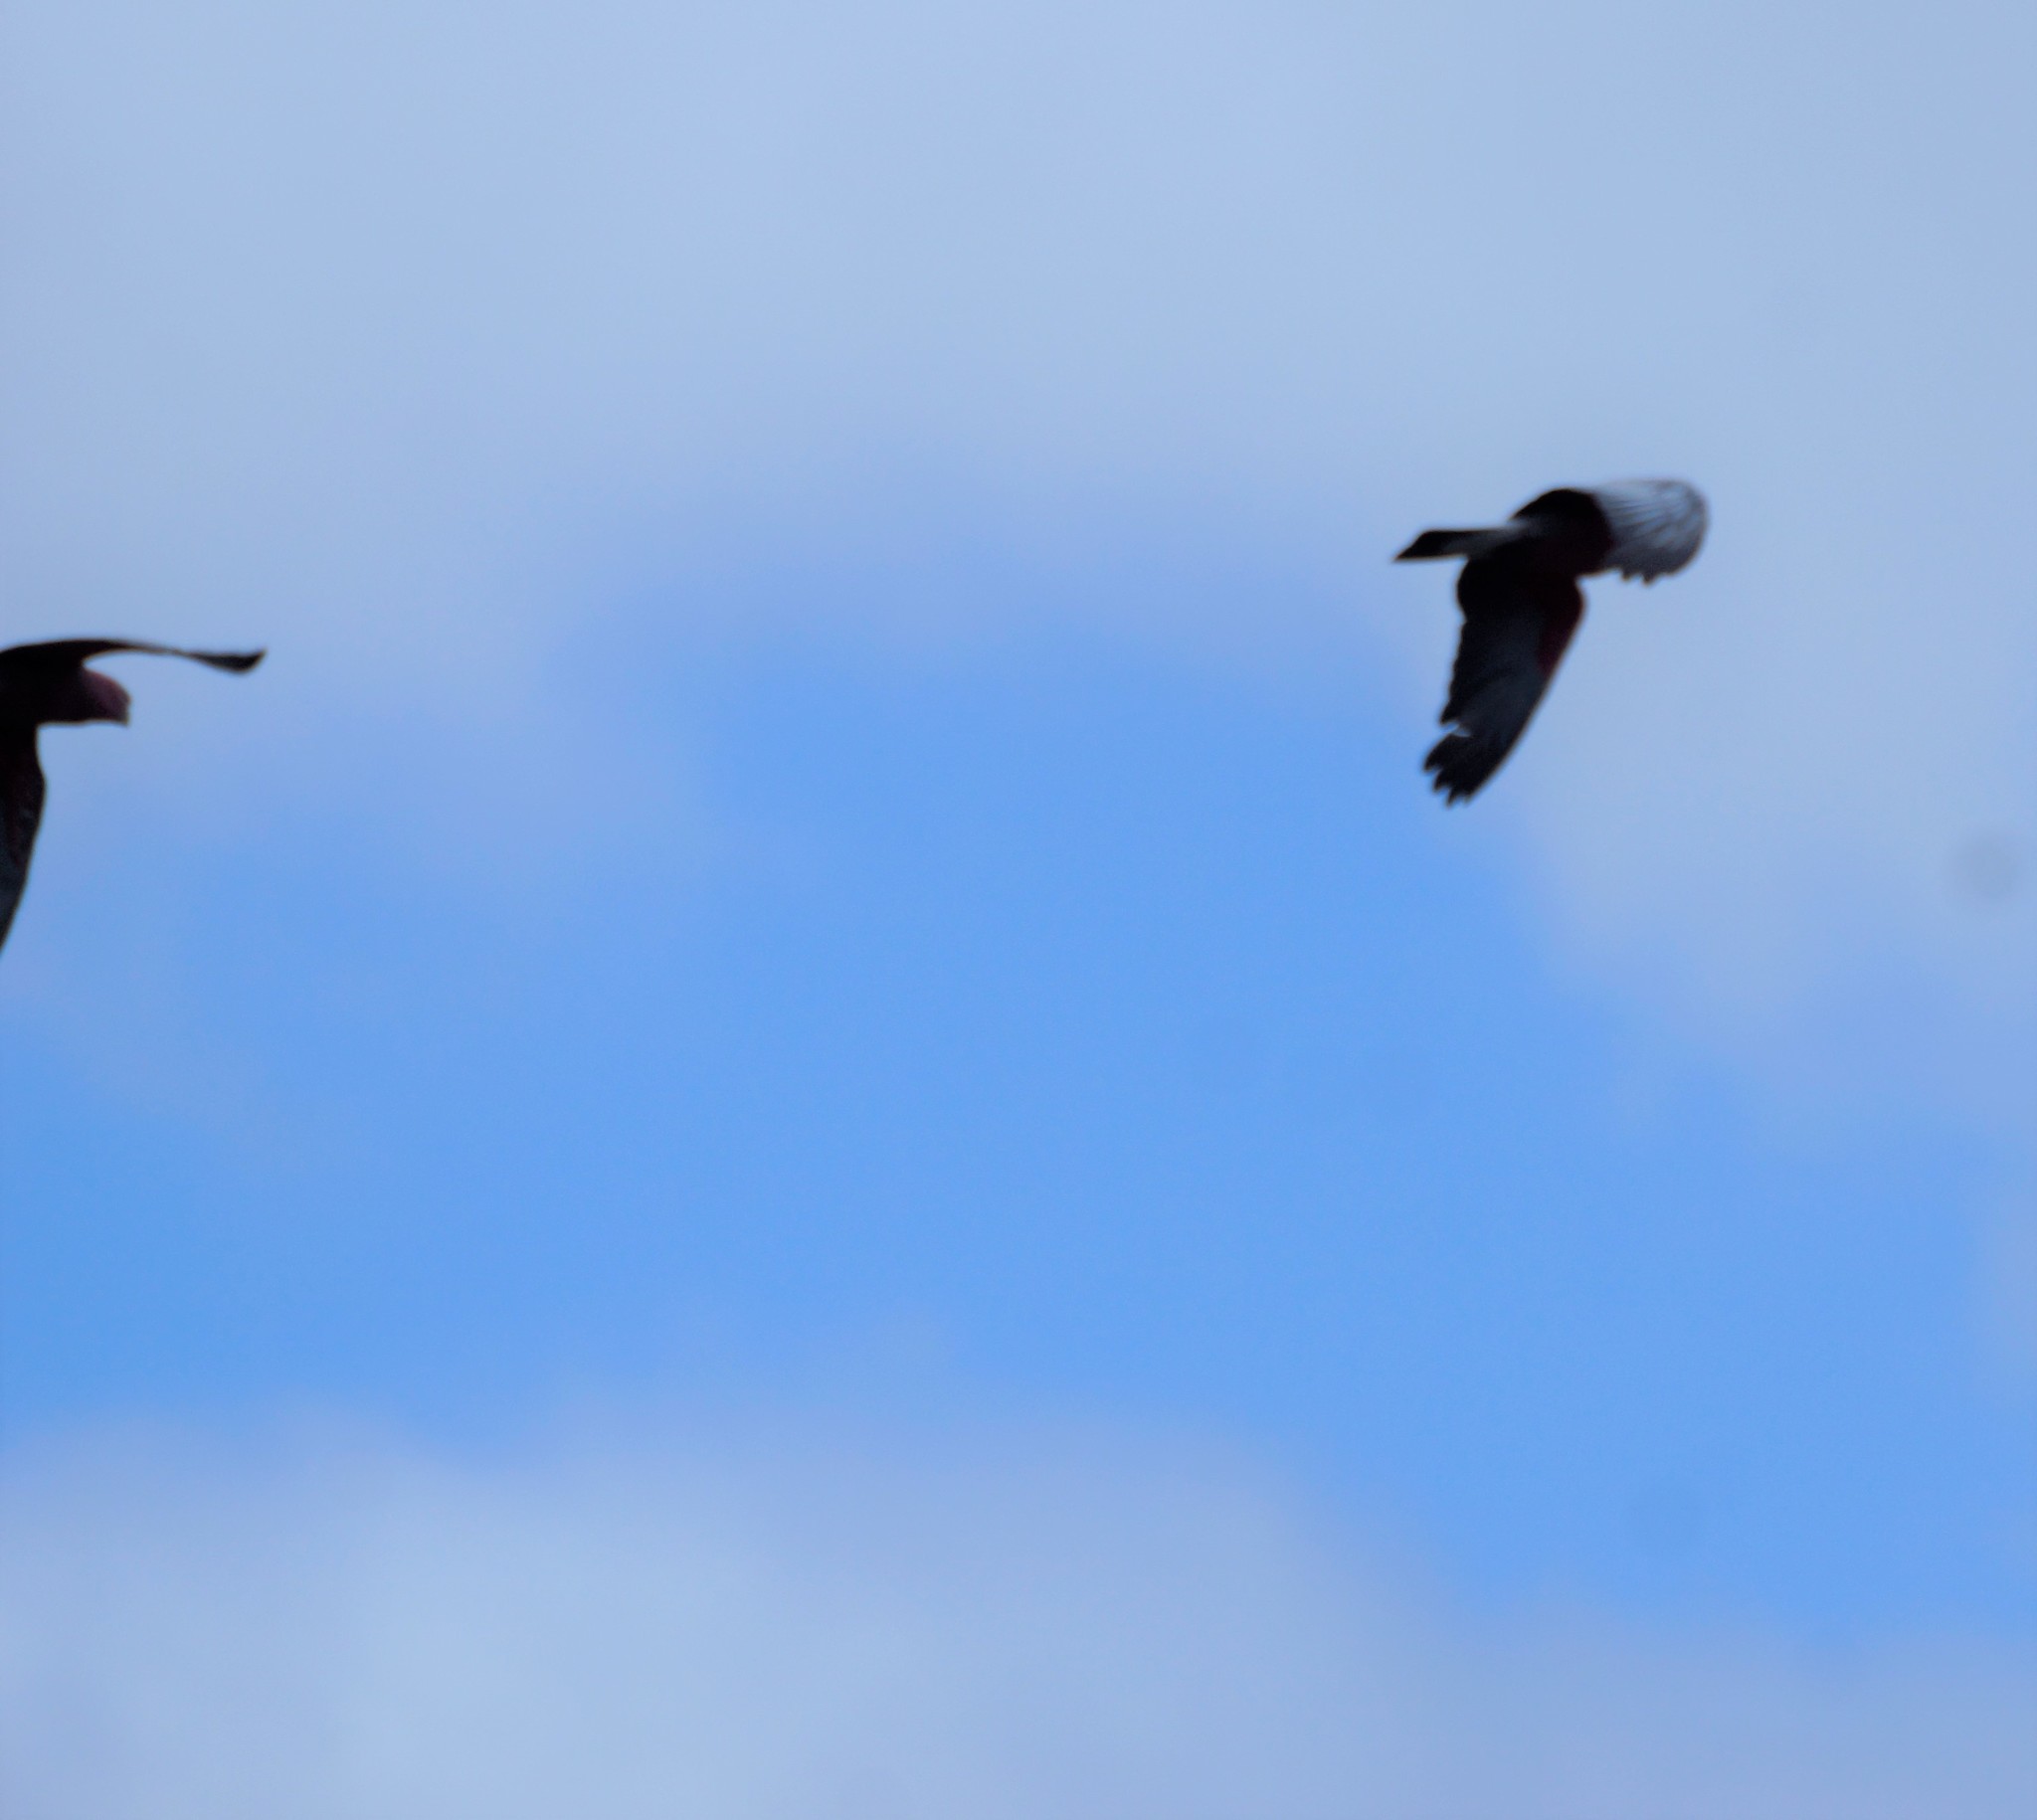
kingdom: Animalia
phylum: Chordata
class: Aves
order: Psittaciformes
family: Psittacidae
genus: Eolophus
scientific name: Eolophus roseicapilla
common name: Galah
